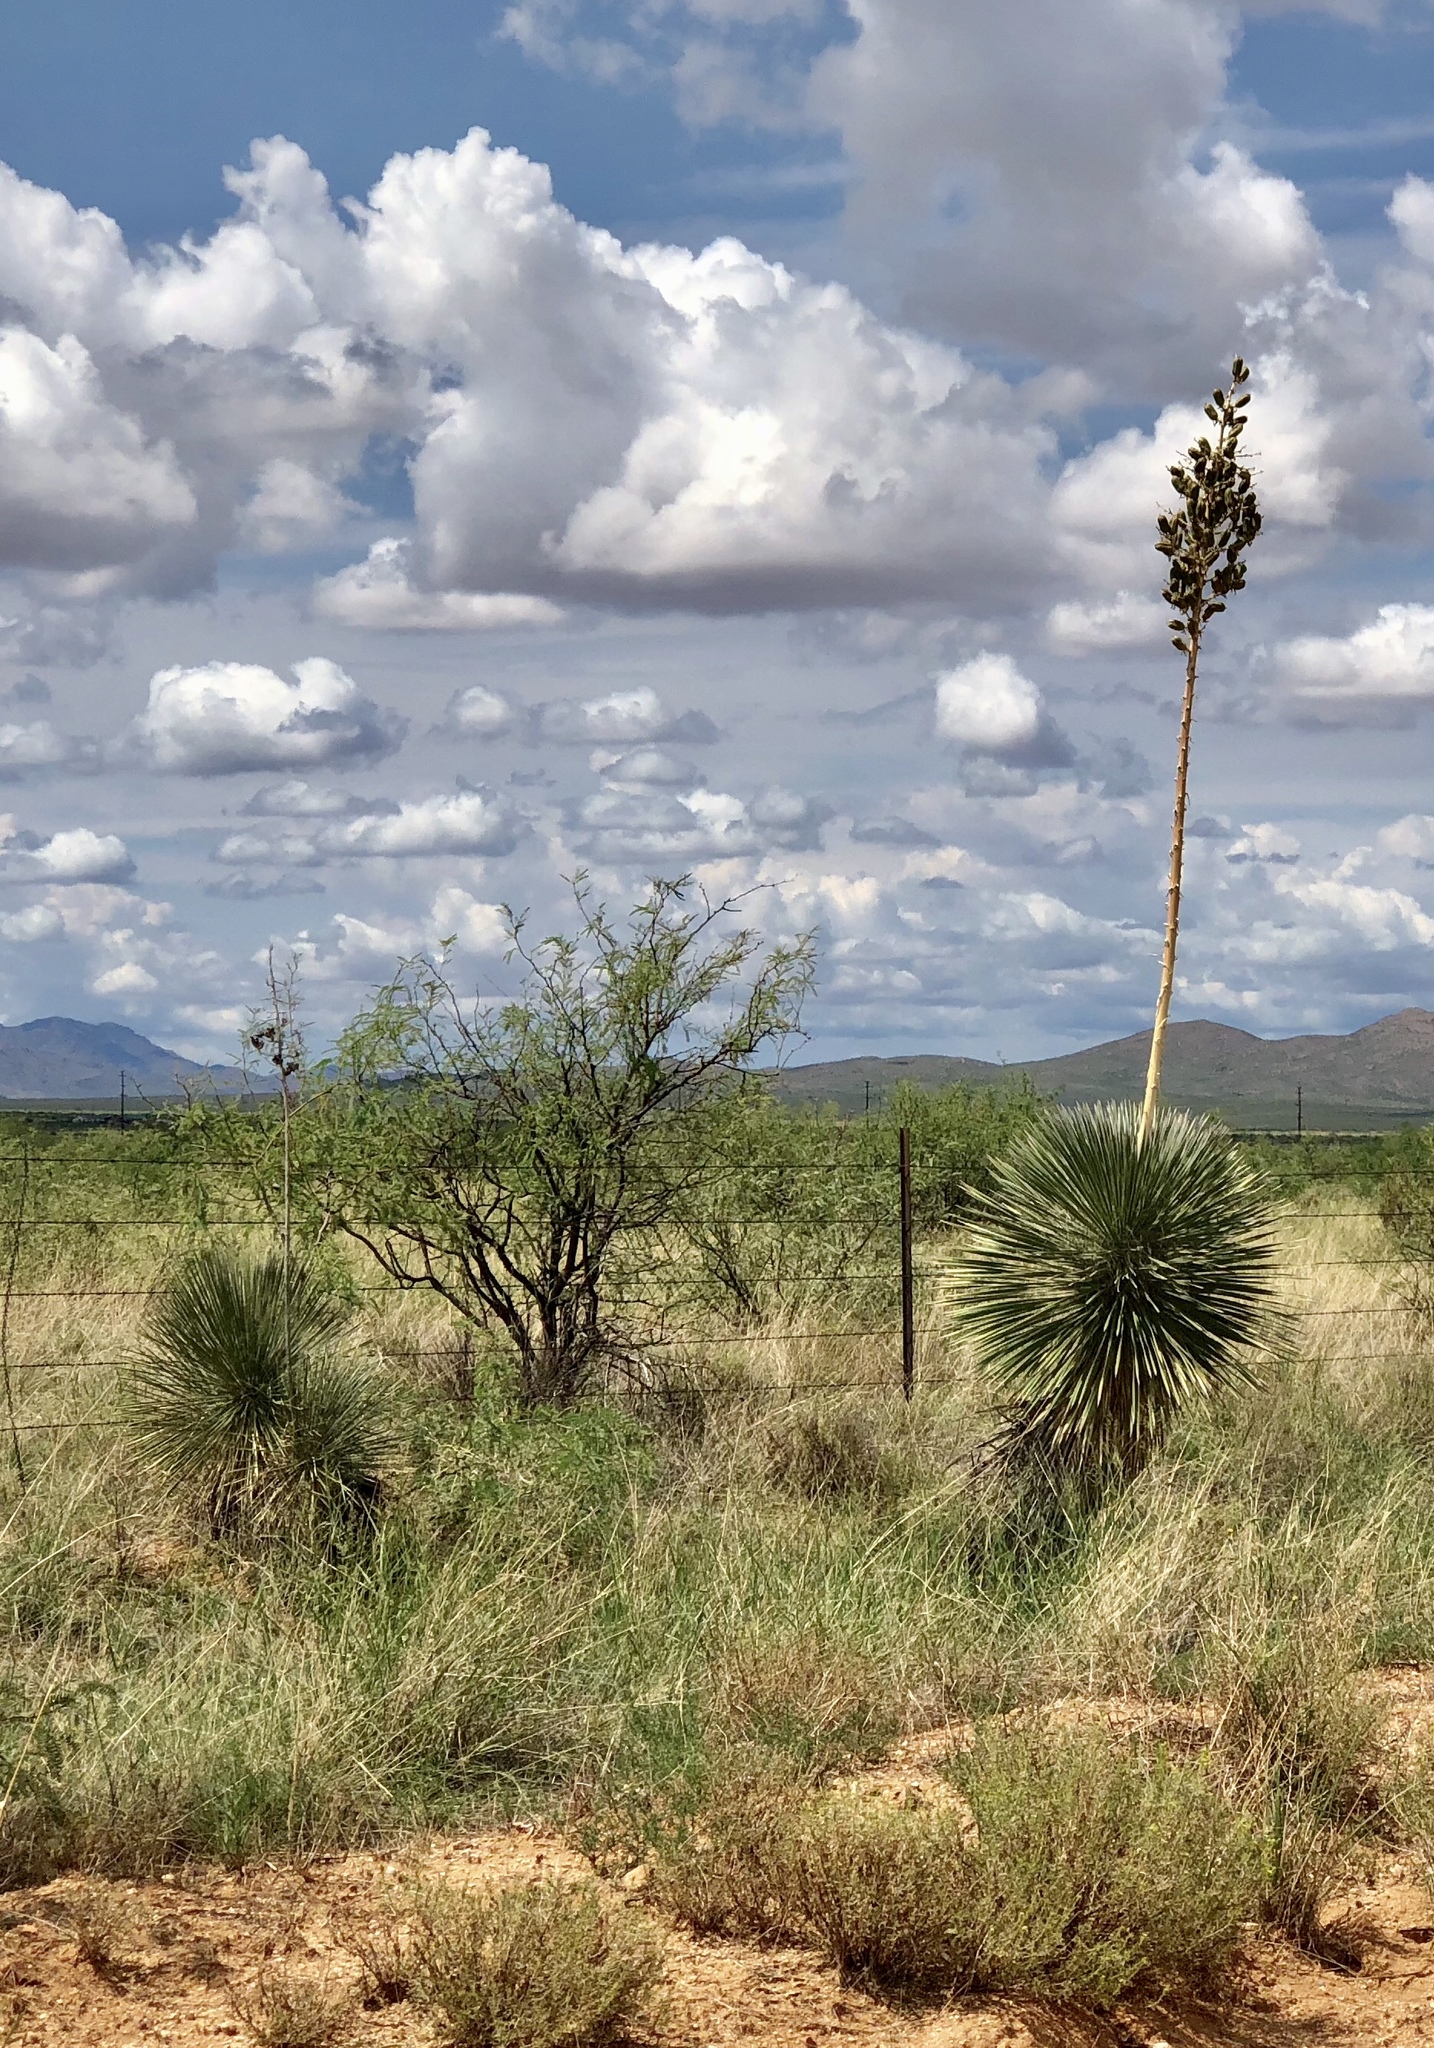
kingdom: Plantae
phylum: Tracheophyta
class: Liliopsida
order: Asparagales
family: Asparagaceae
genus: Yucca
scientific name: Yucca elata
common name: Palmella
